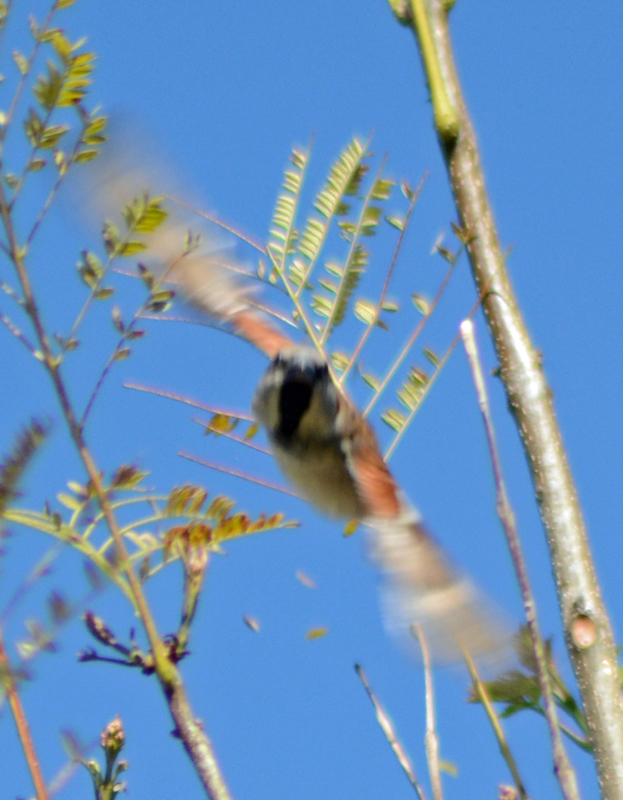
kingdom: Animalia
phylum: Chordata
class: Aves
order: Passeriformes
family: Passeridae
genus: Passer
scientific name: Passer domesticus
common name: House sparrow
